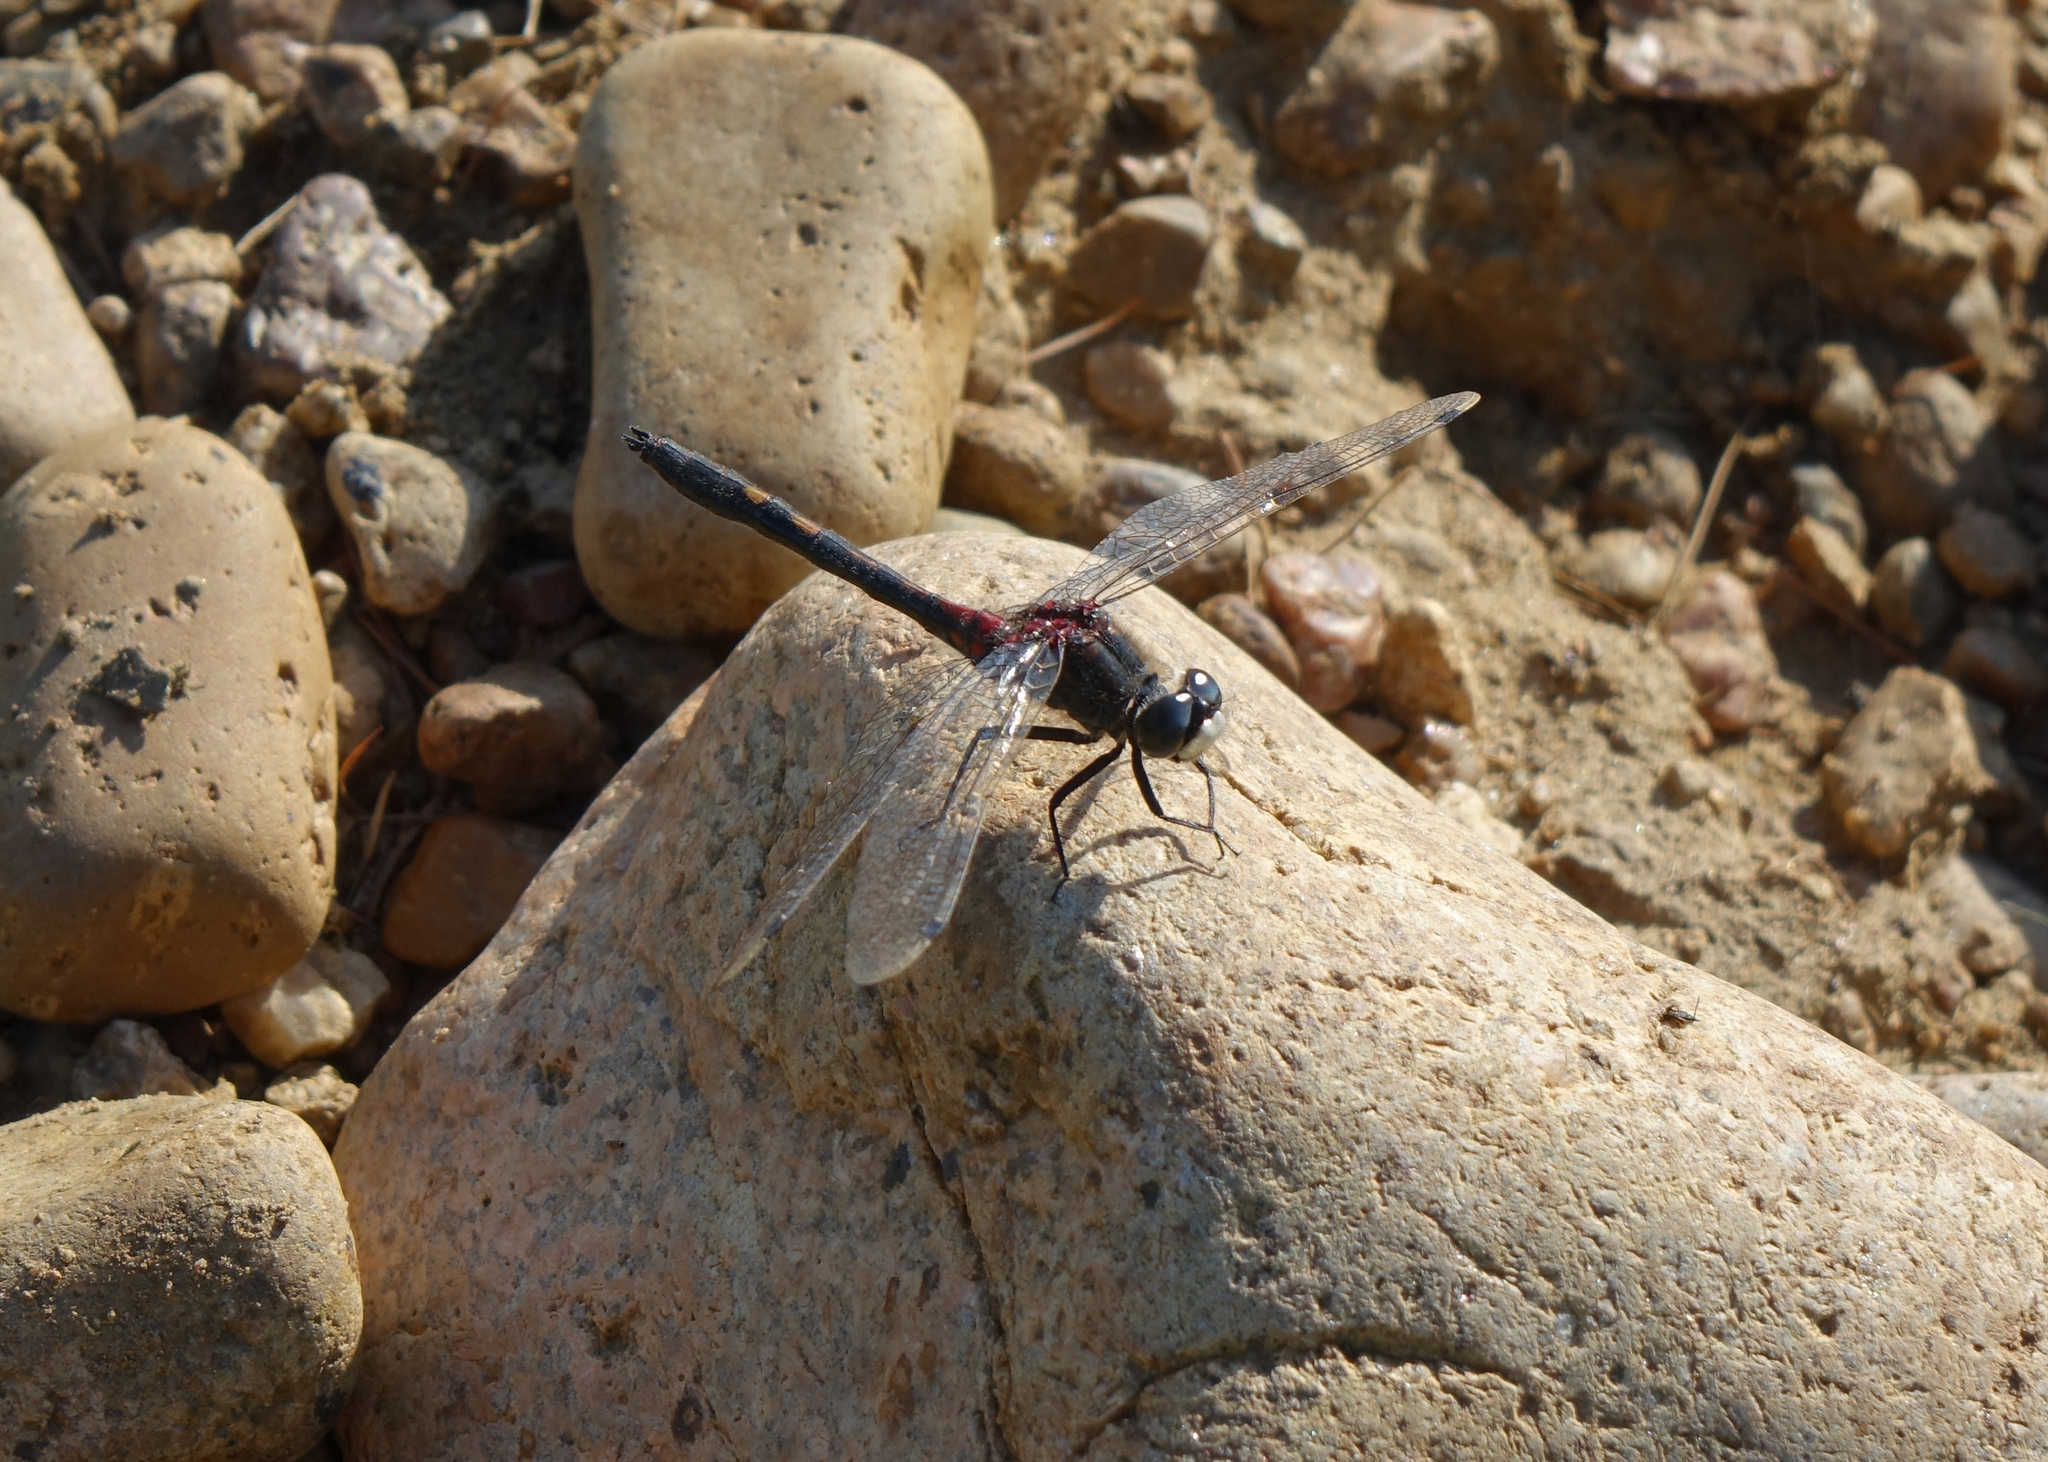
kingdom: Animalia
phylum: Arthropoda
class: Insecta
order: Odonata
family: Libellulidae
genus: Leucorrhinia
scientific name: Leucorrhinia intermedia
